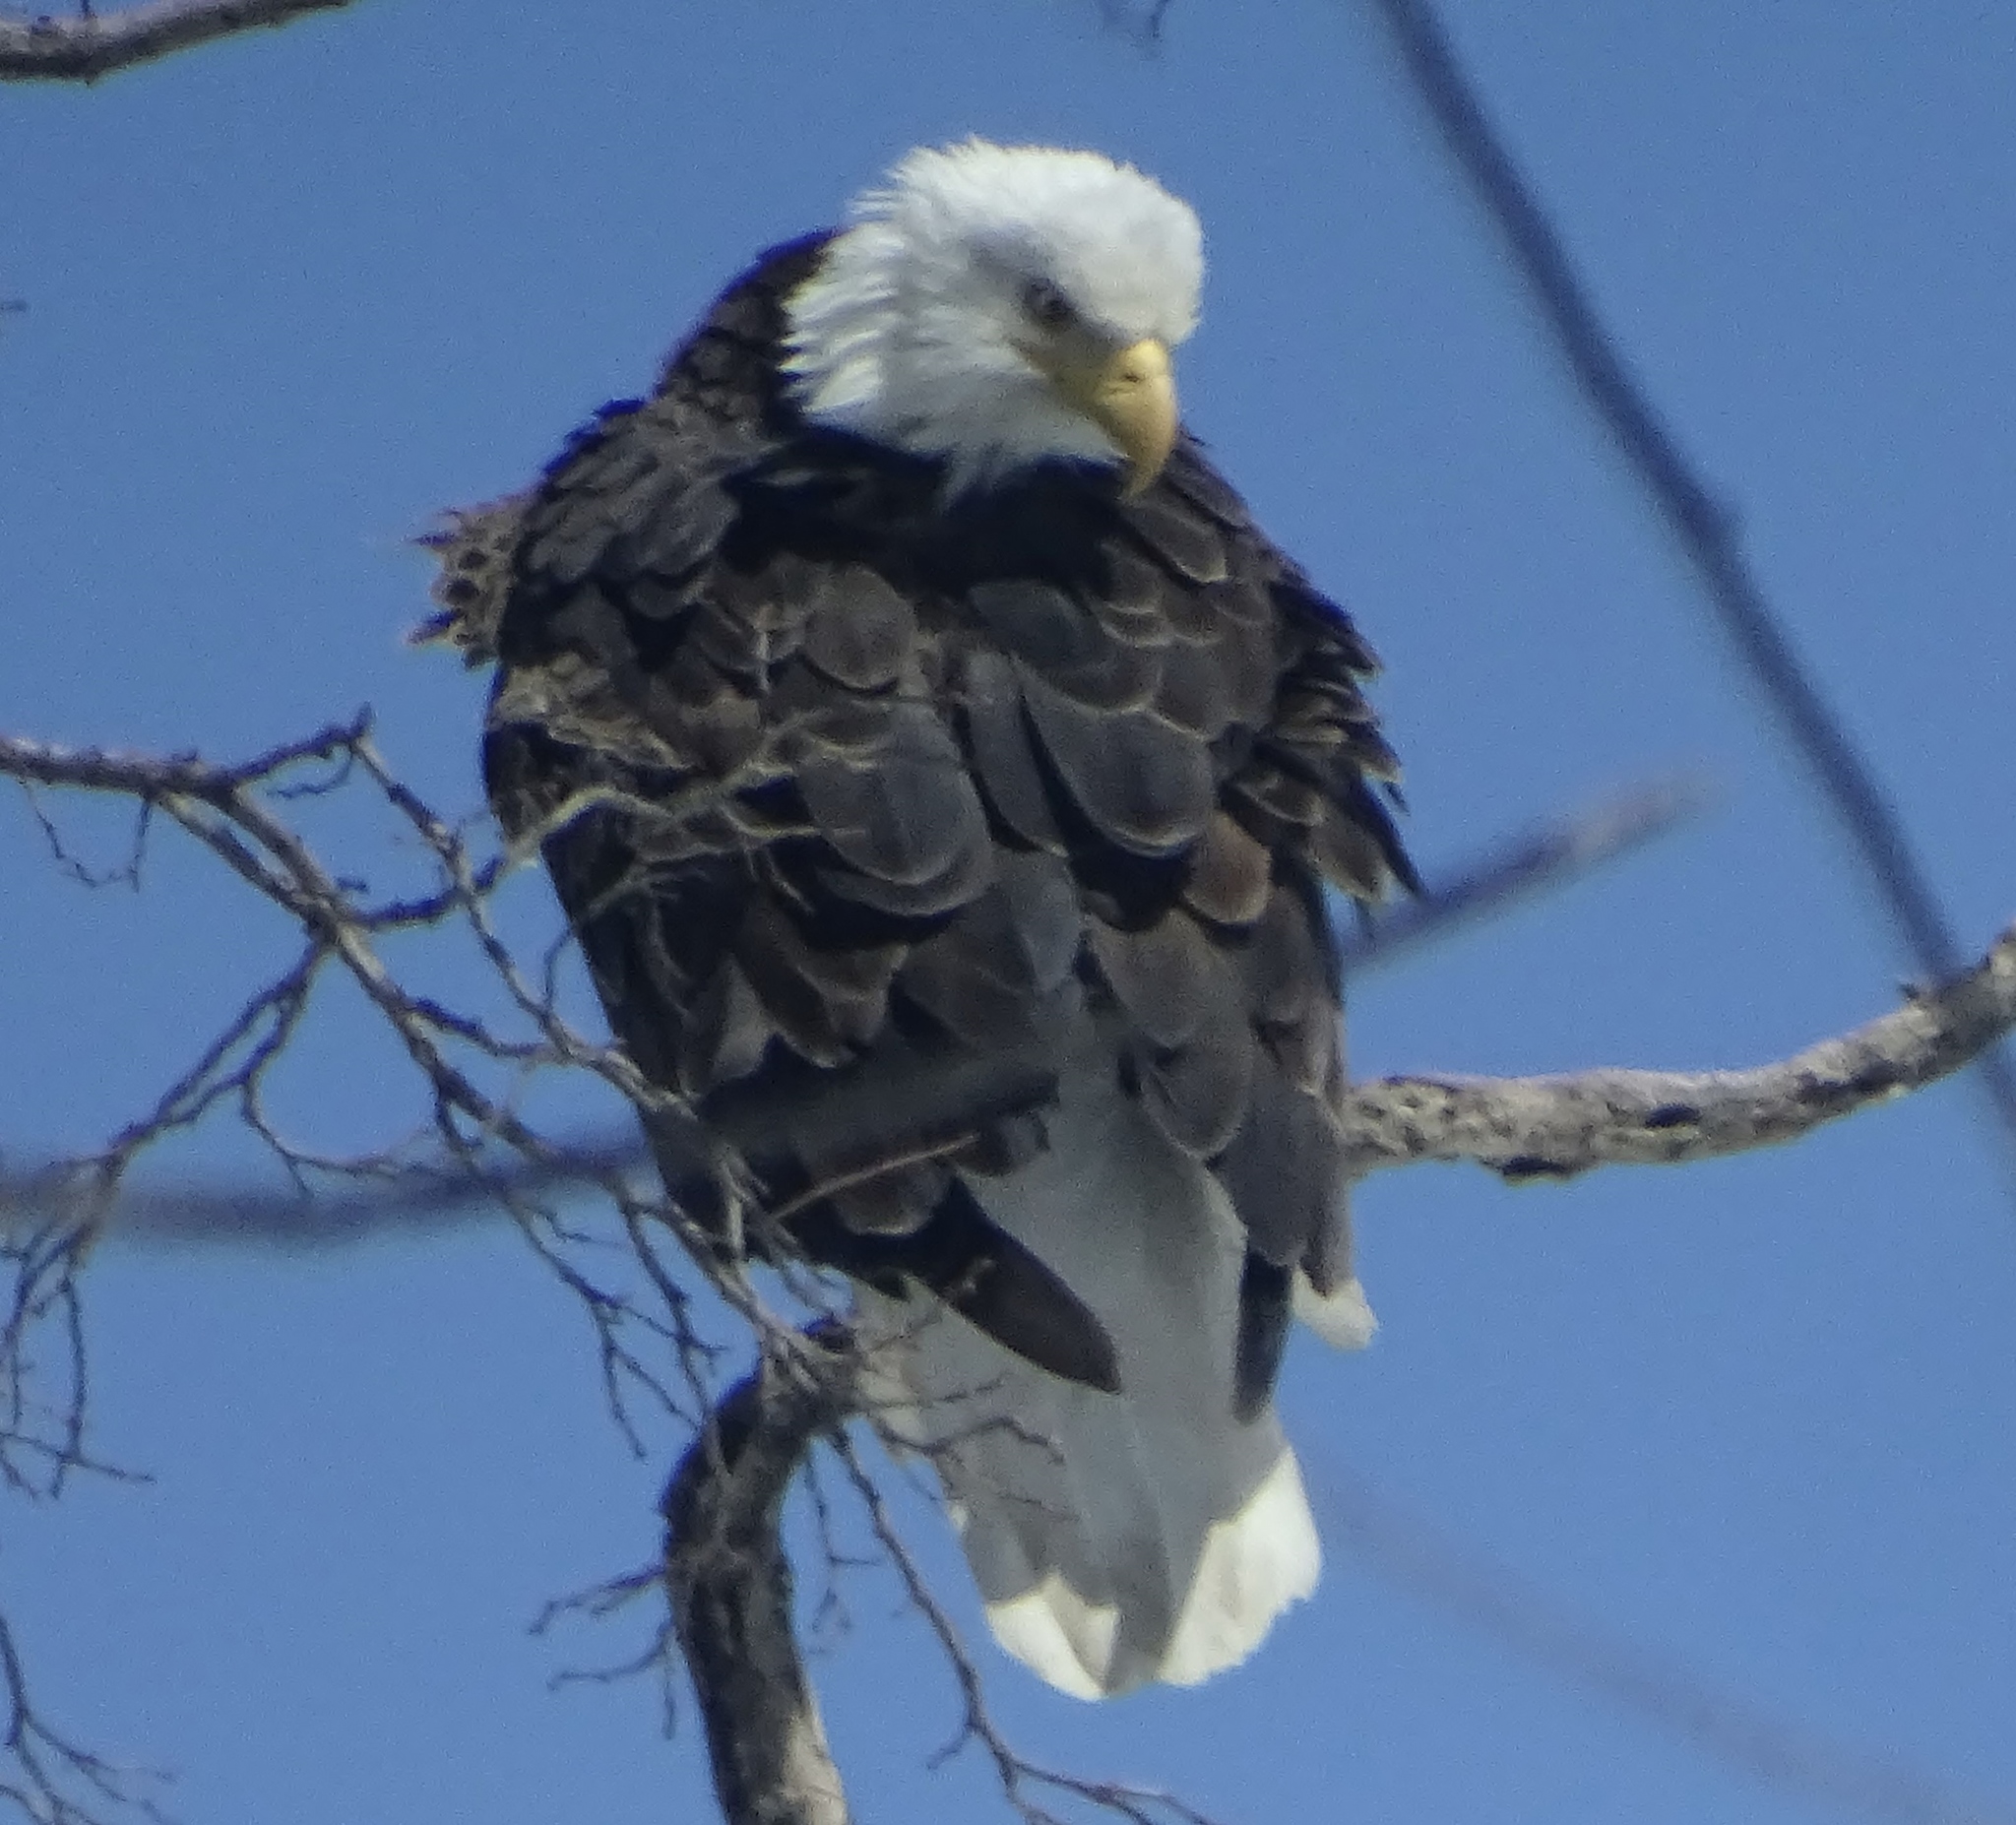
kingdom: Animalia
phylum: Chordata
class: Aves
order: Accipitriformes
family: Accipitridae
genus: Haliaeetus
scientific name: Haliaeetus leucocephalus
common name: Bald eagle
